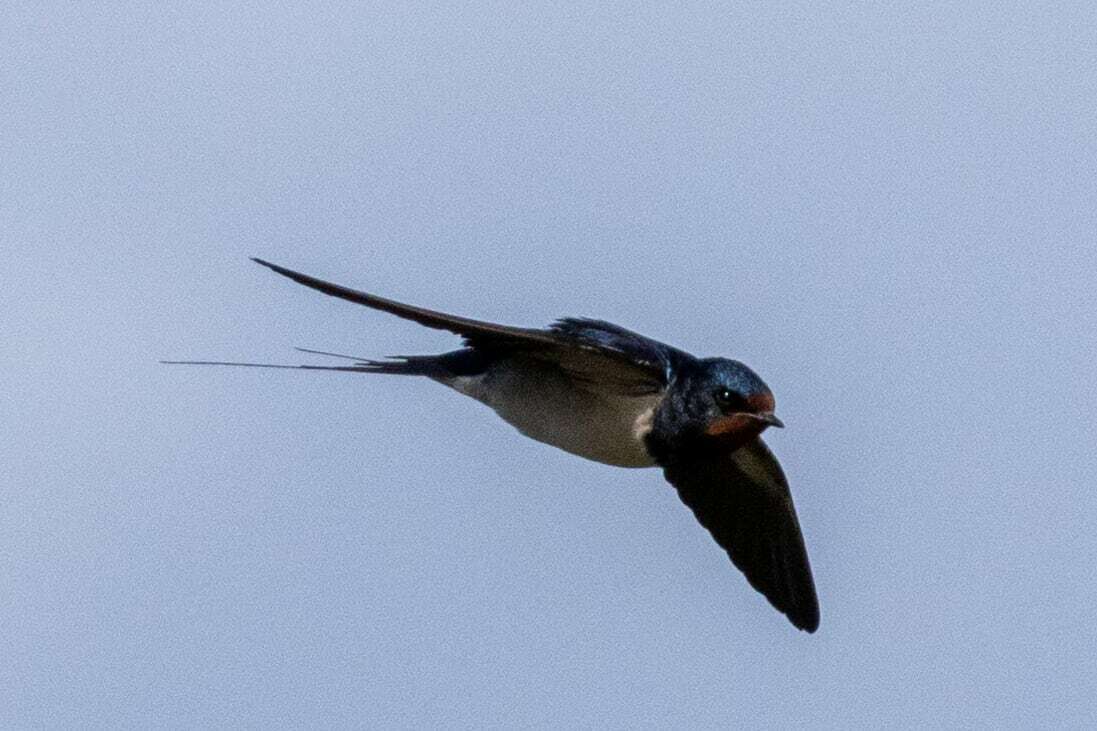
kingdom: Animalia
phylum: Chordata
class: Aves
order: Passeriformes
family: Hirundinidae
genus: Hirundo
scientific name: Hirundo rustica
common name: Barn swallow
